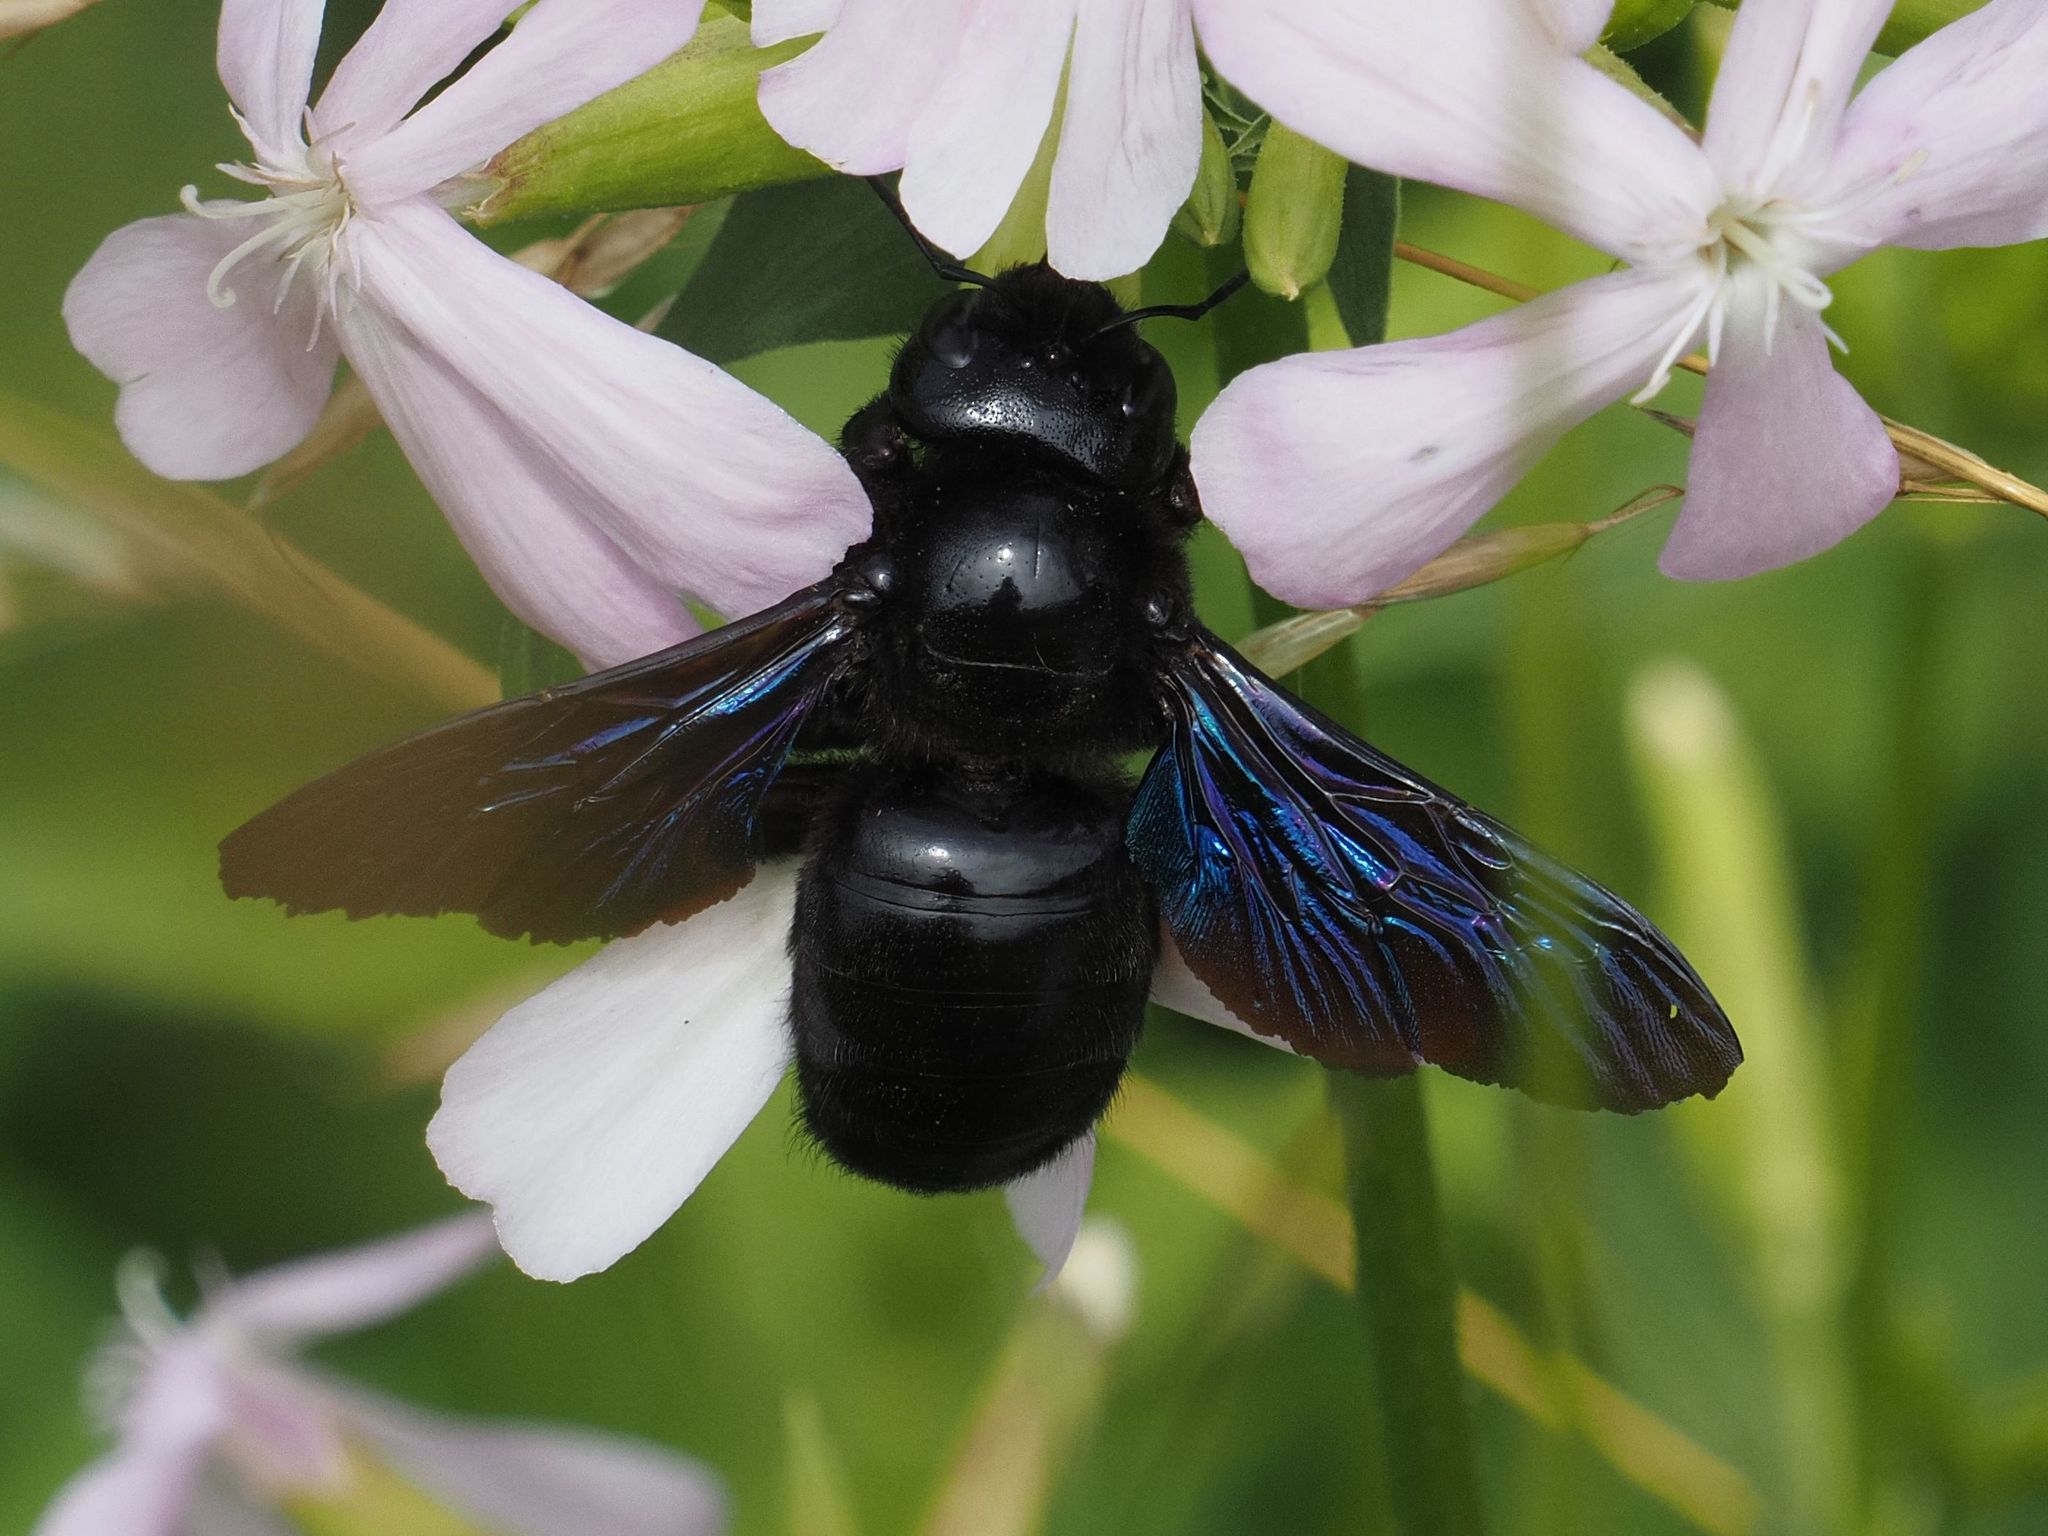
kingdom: Animalia
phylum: Arthropoda
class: Insecta
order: Hymenoptera
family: Apidae
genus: Xylocopa
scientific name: Xylocopa valga
